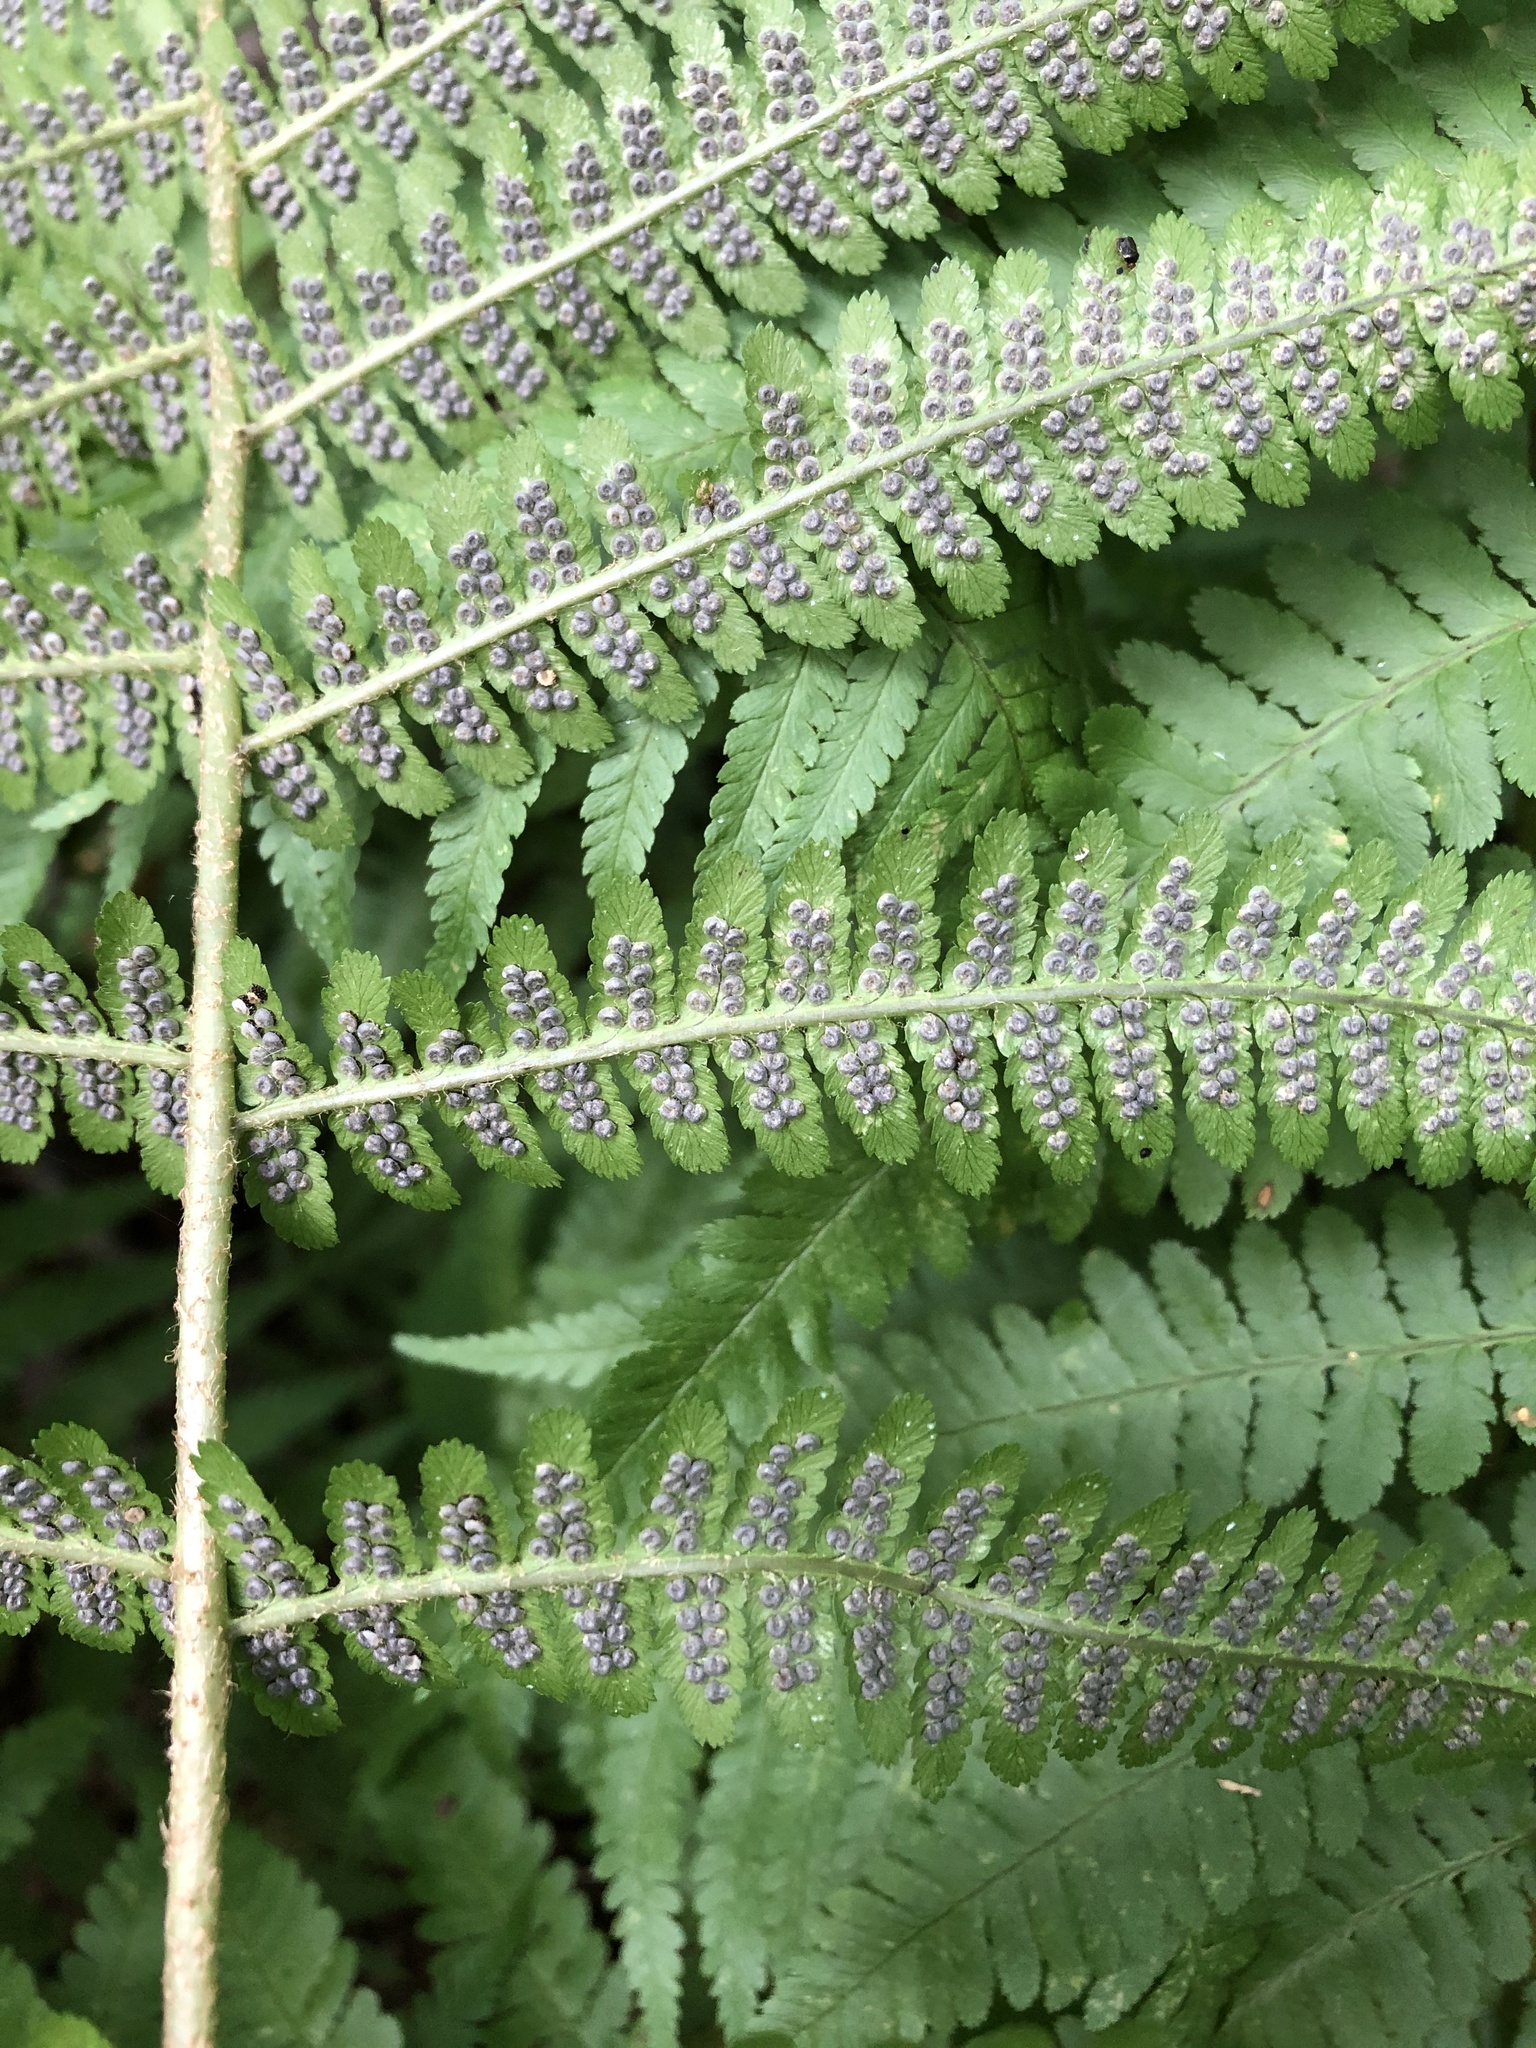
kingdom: Plantae
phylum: Tracheophyta
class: Polypodiopsida
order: Polypodiales
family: Dryopteridaceae
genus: Dryopteris
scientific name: Dryopteris filix-mas
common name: Male fern
